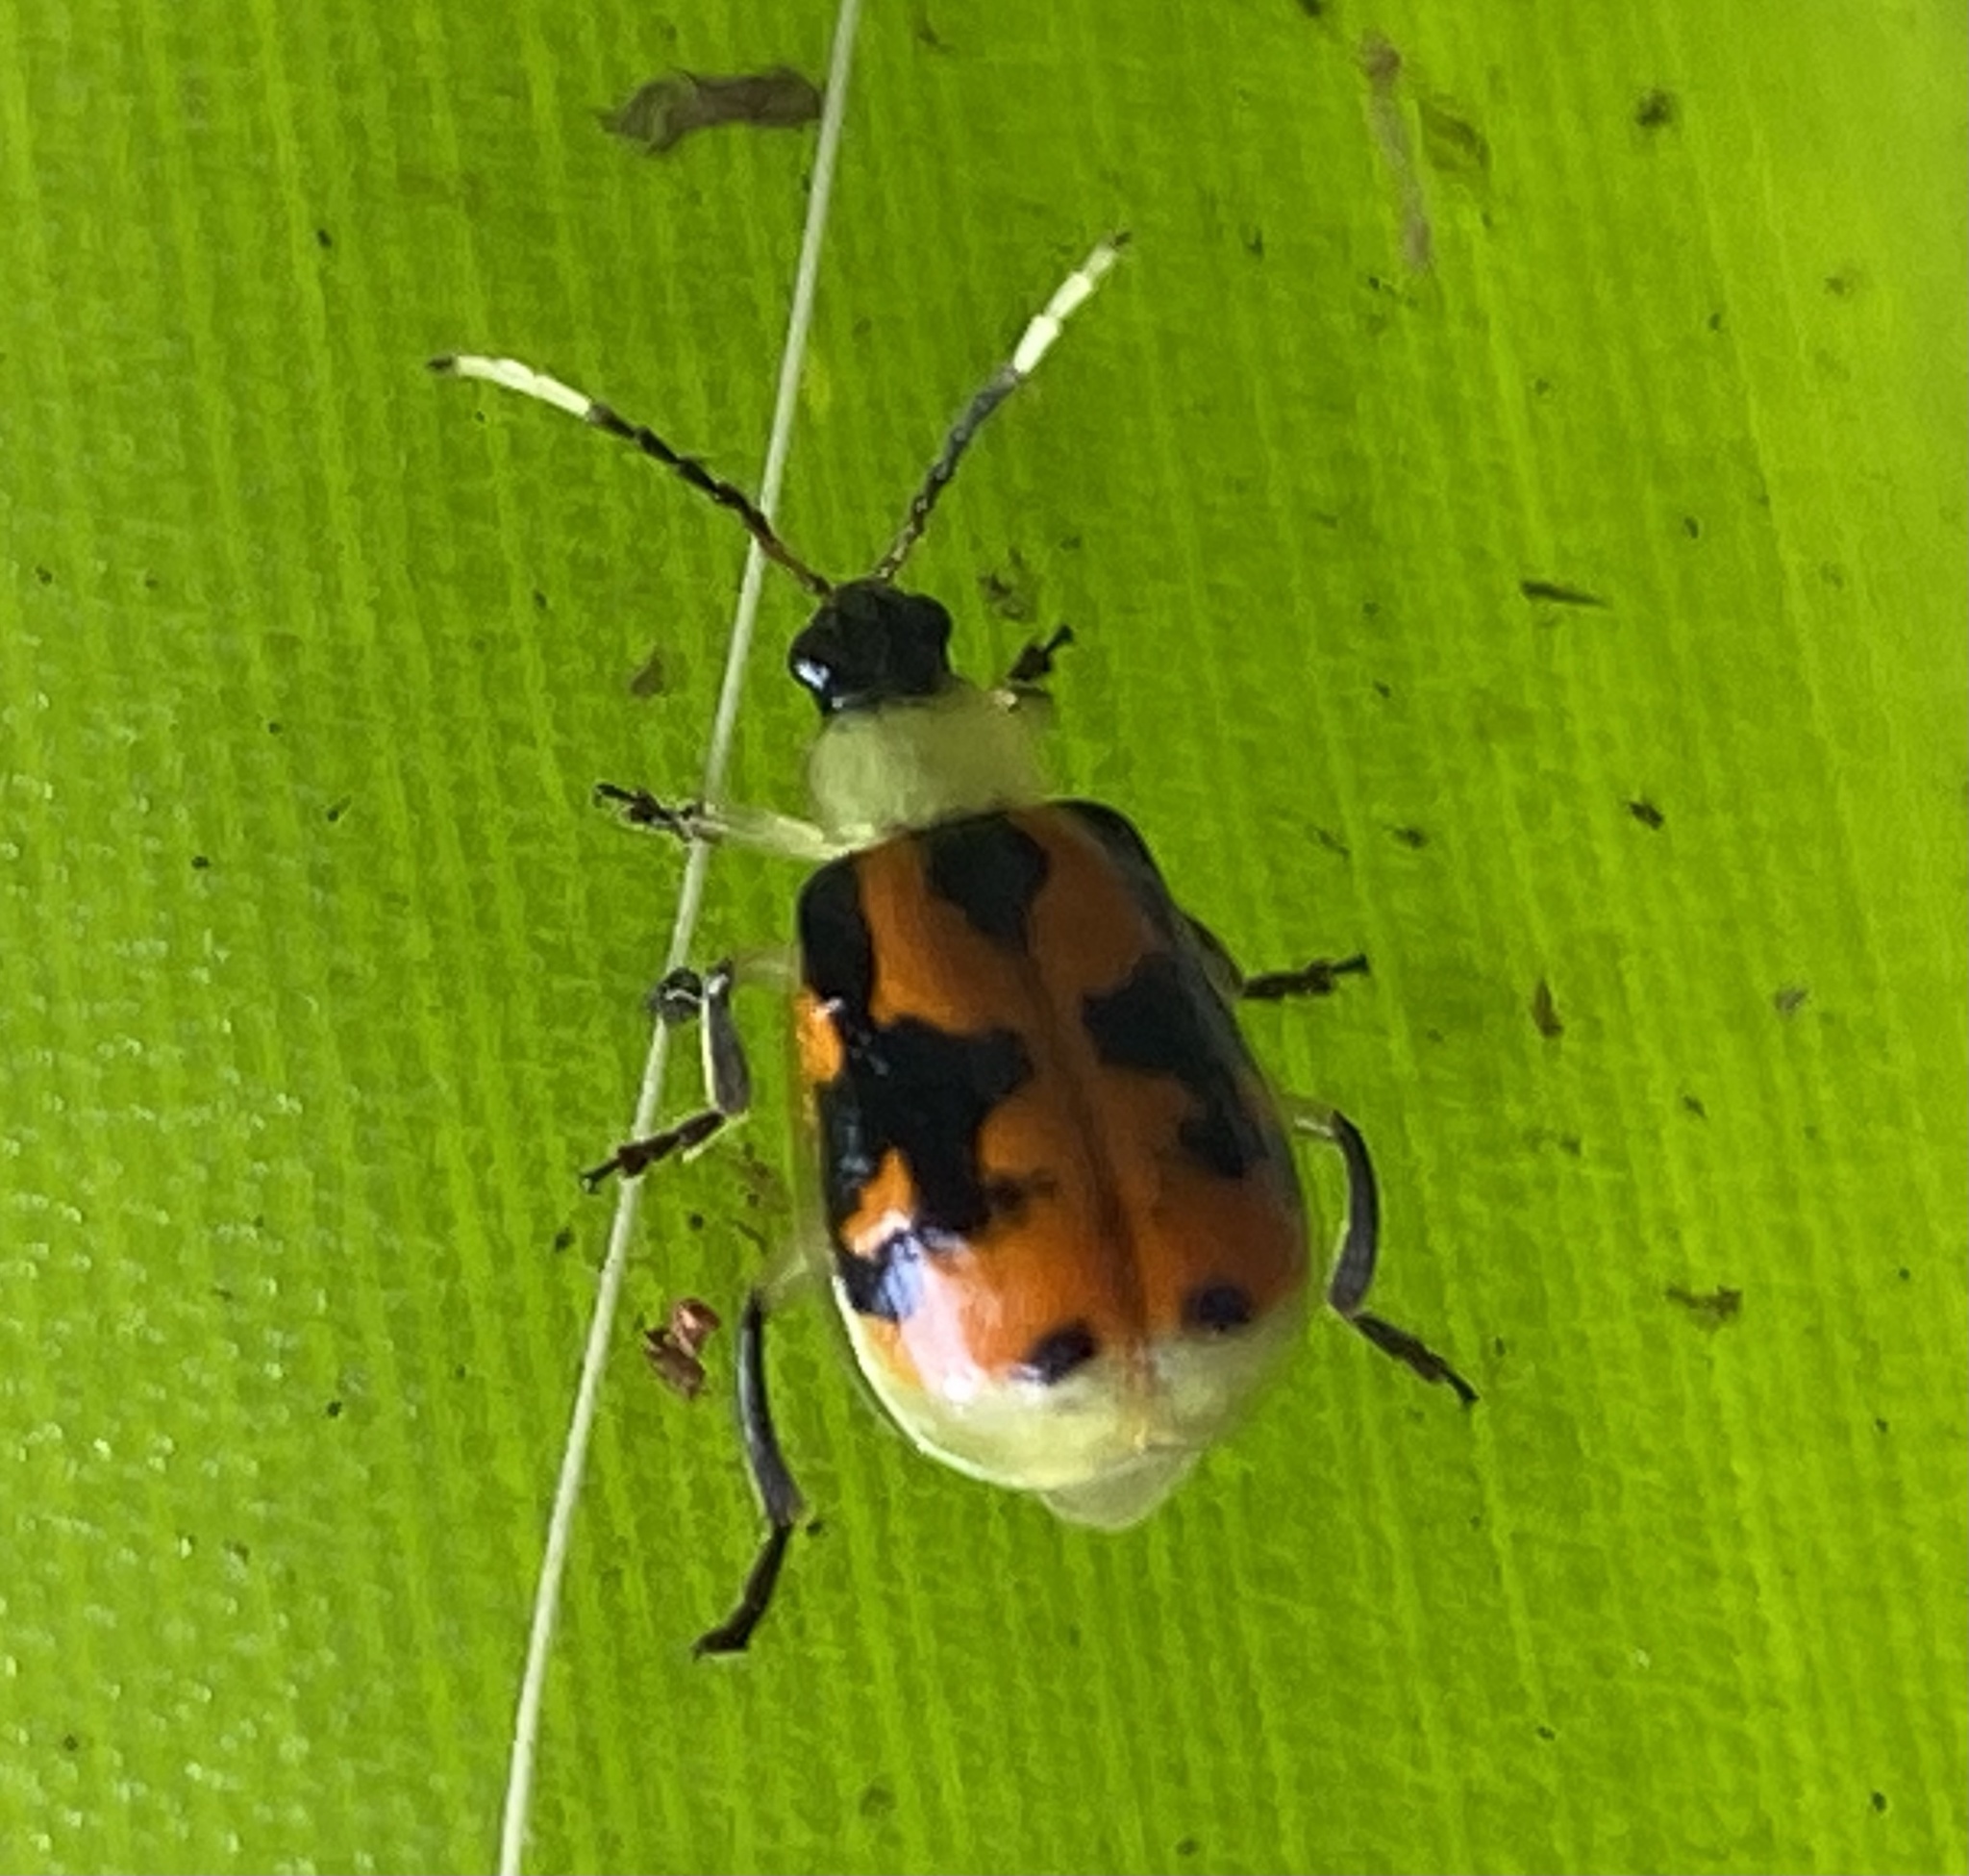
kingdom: Animalia
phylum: Arthropoda
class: Insecta
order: Coleoptera
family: Chrysomelidae
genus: Diabrotica
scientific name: Diabrotica limitata
